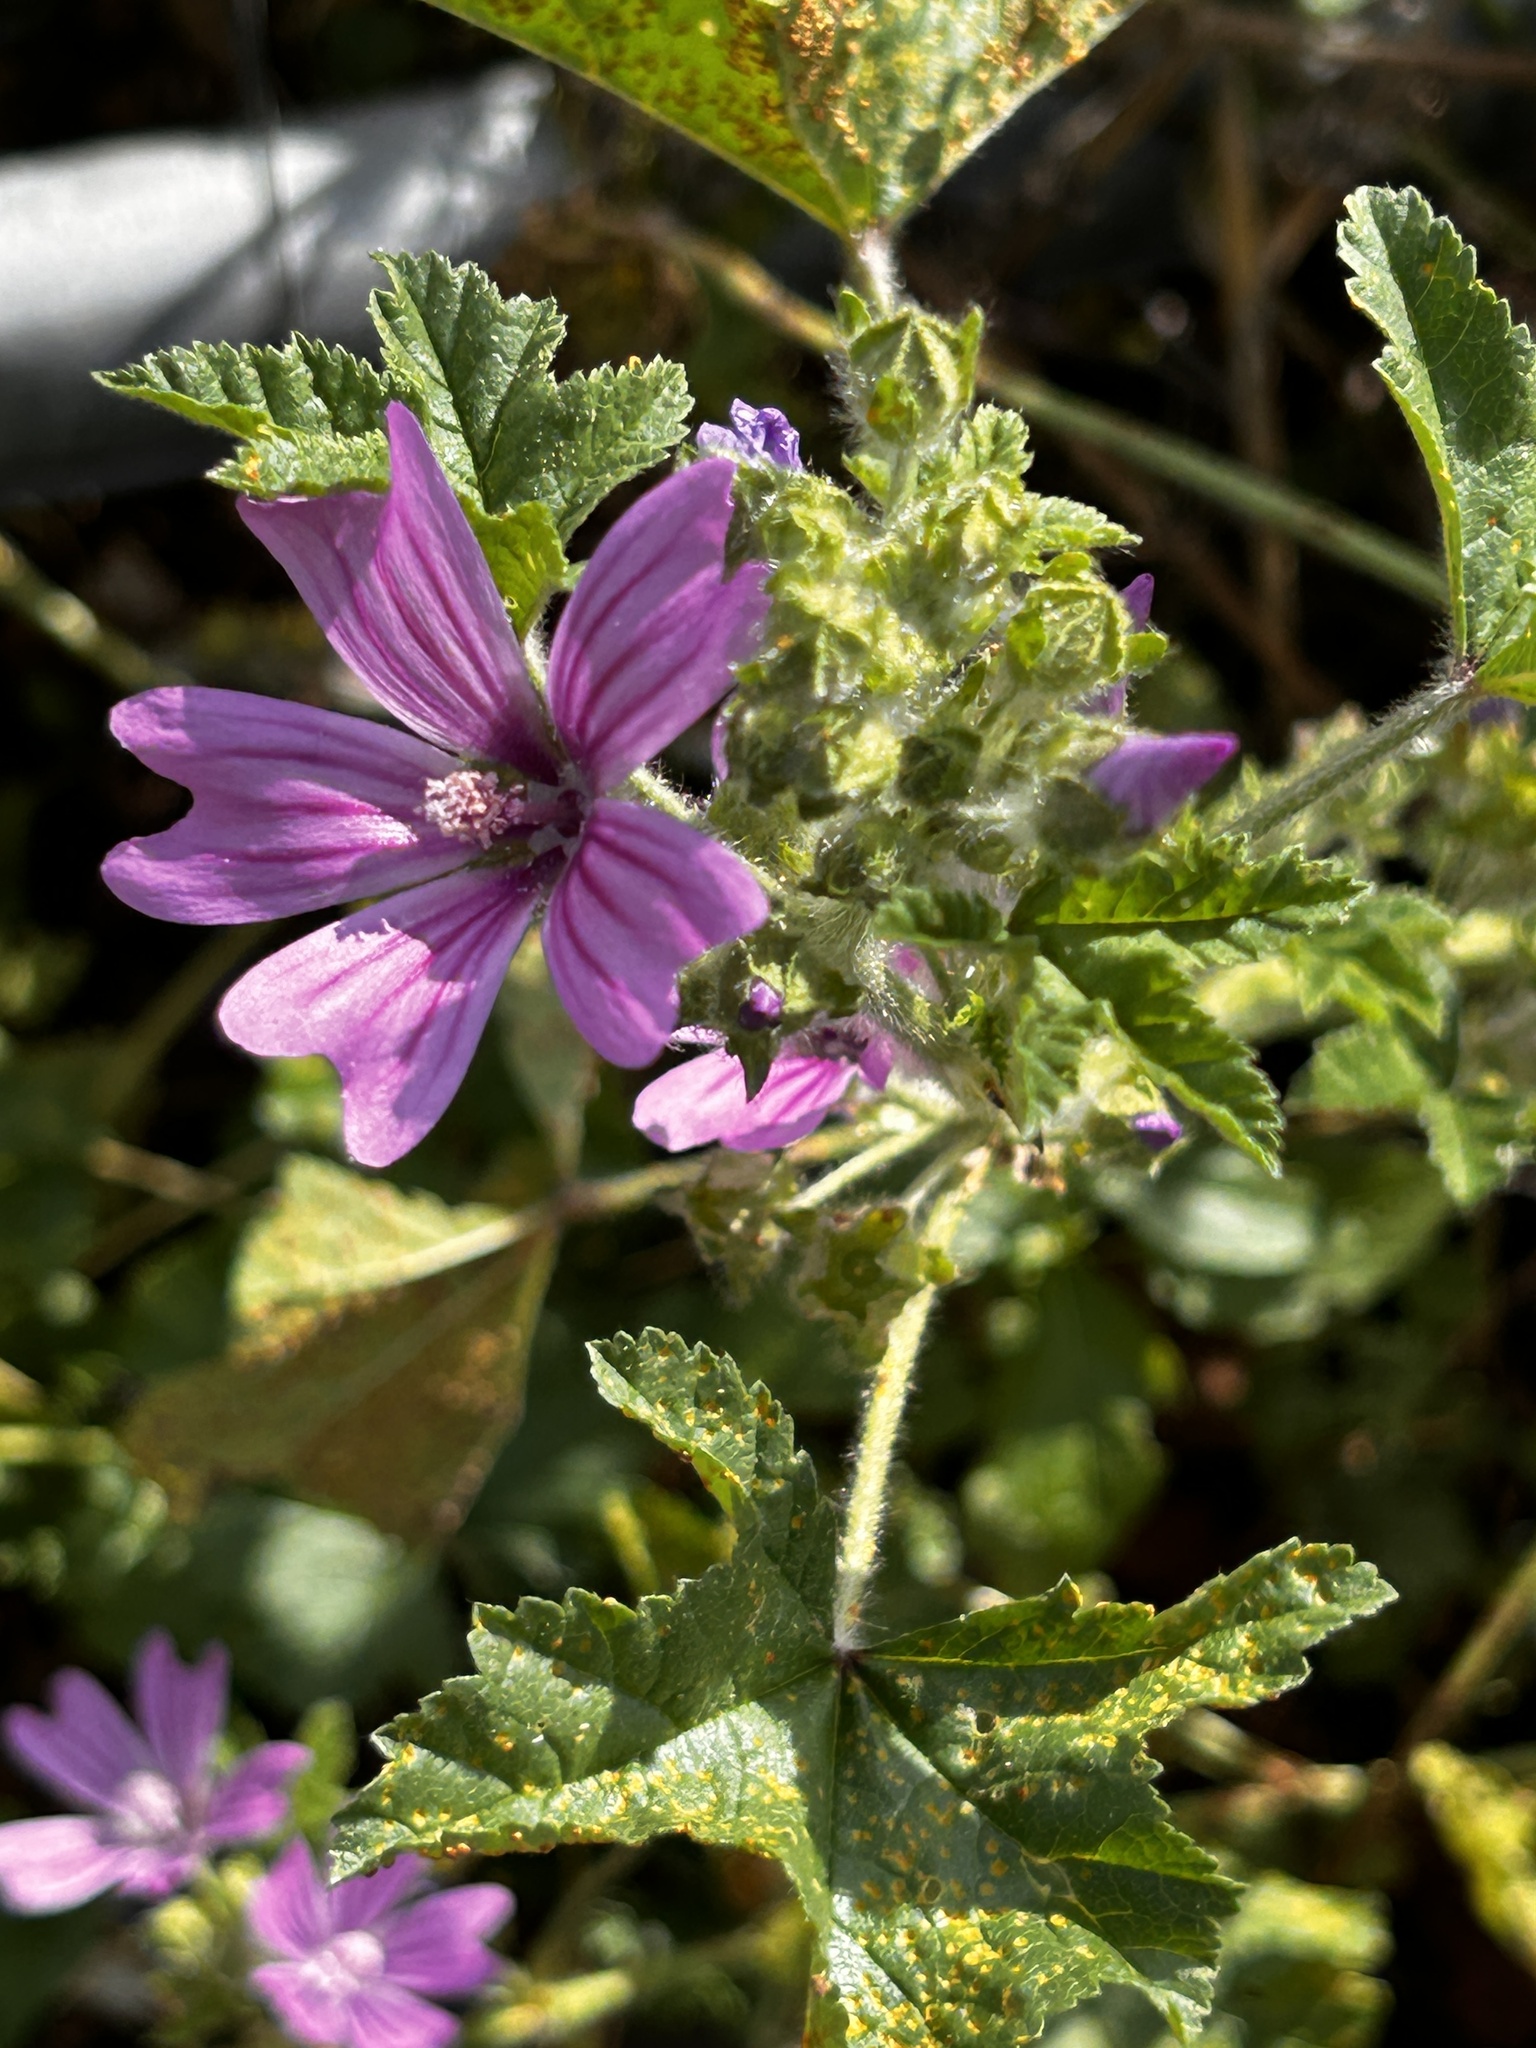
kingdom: Plantae
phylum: Tracheophyta
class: Magnoliopsida
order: Malvales
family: Malvaceae
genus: Malva
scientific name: Malva sylvestris
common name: Common mallow
